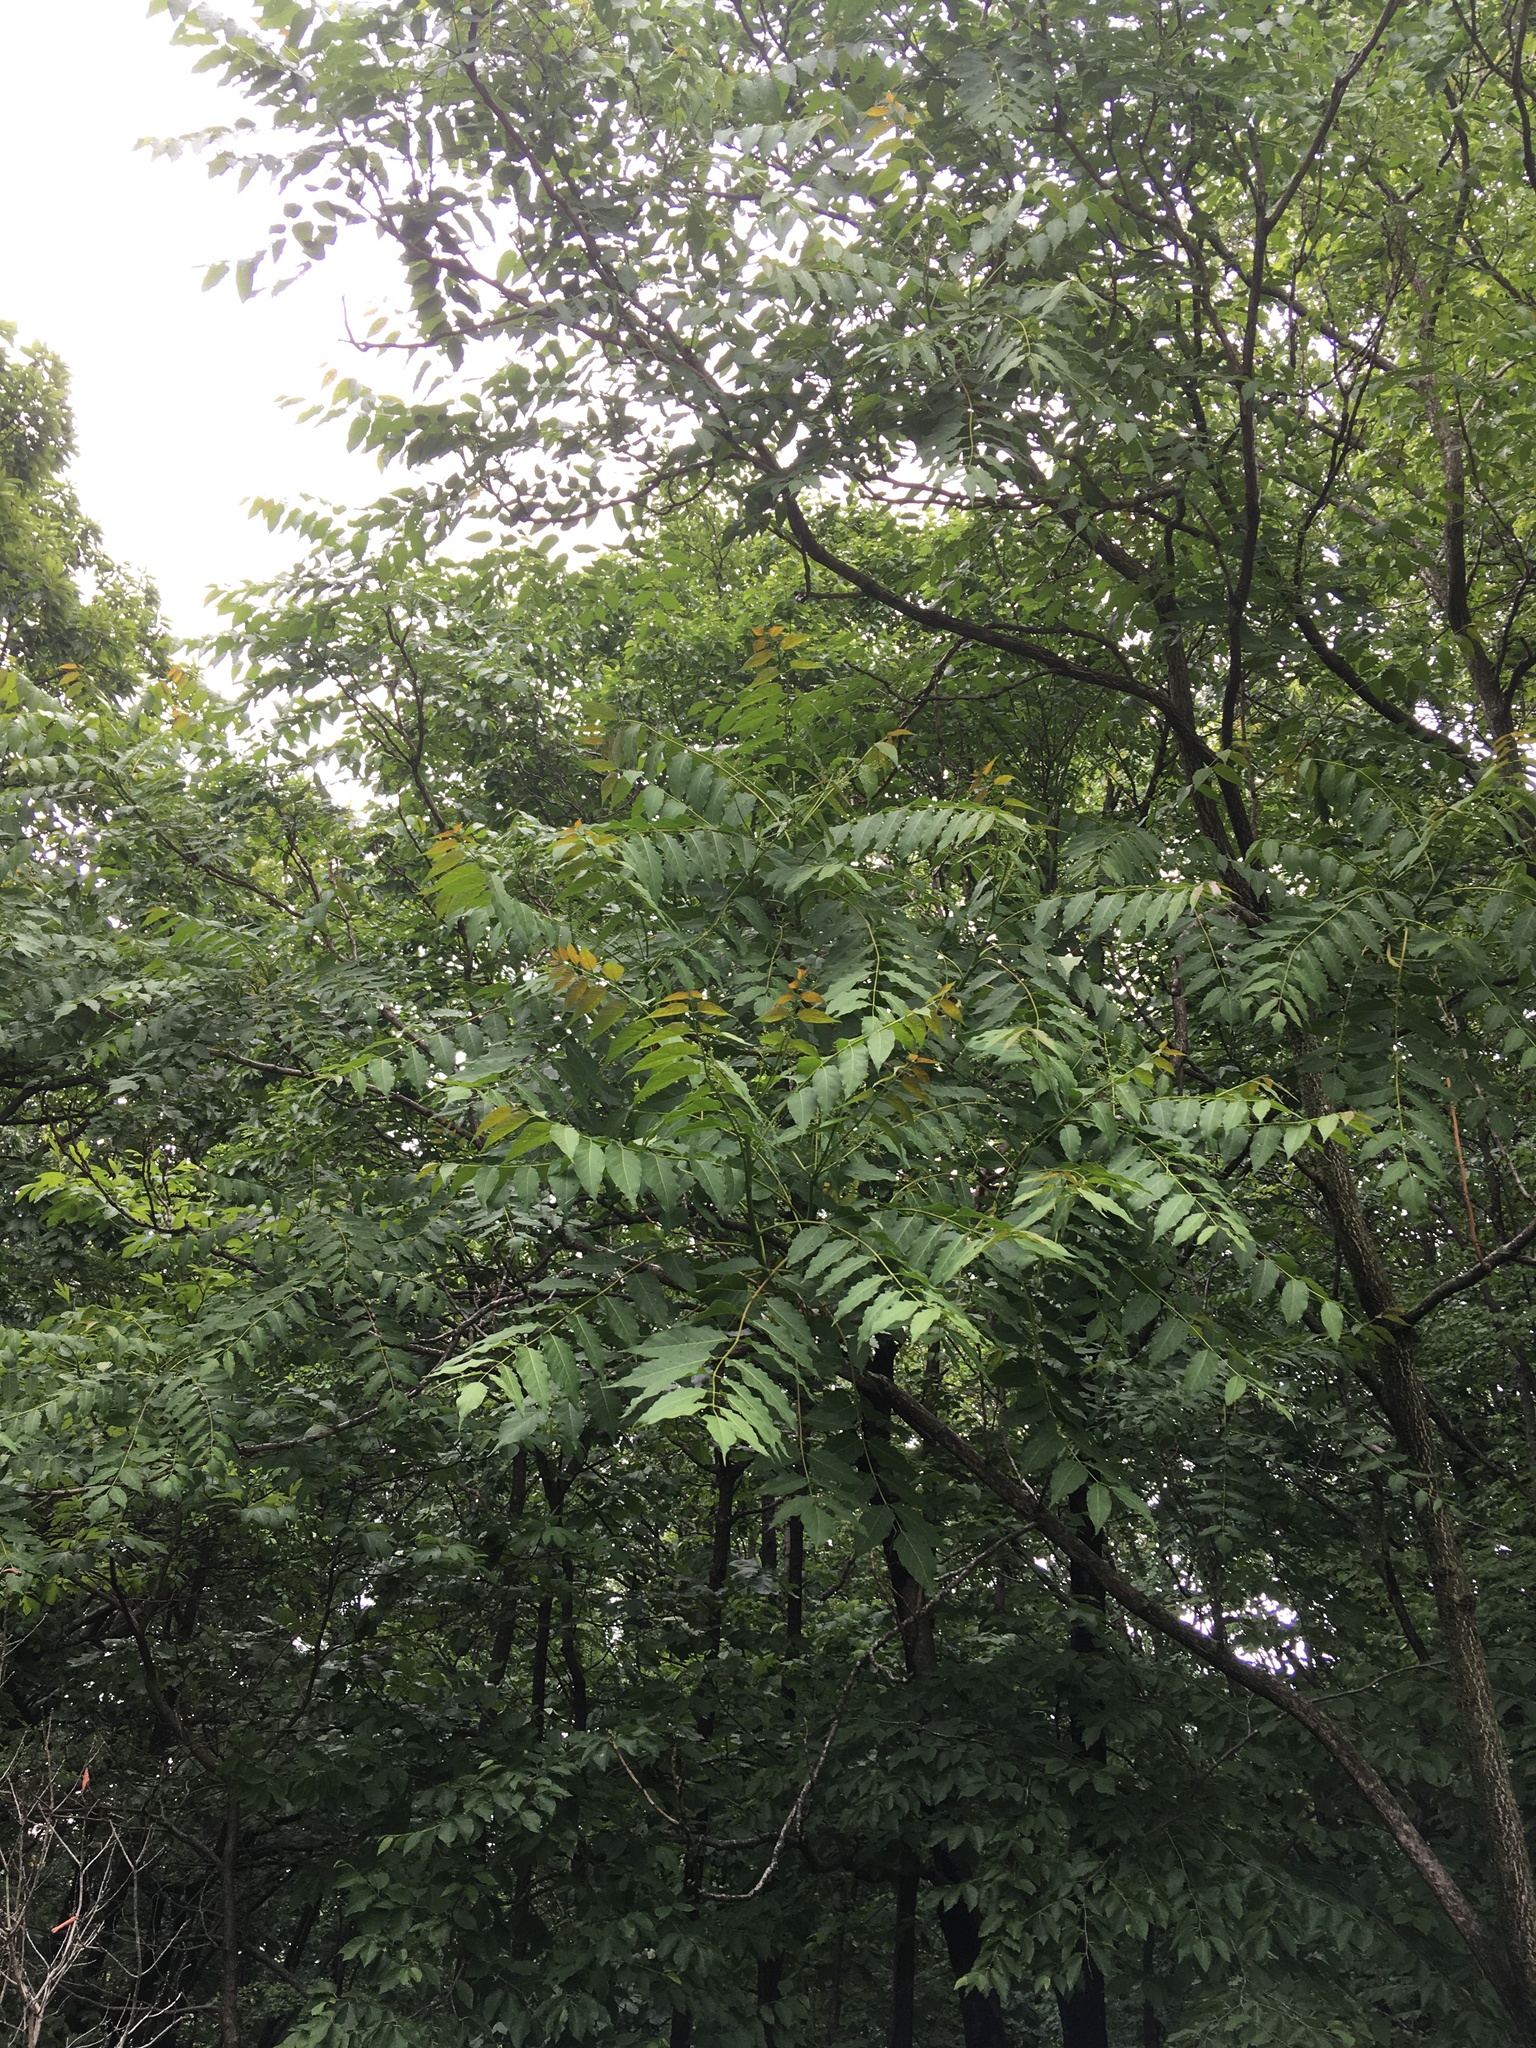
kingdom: Plantae
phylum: Tracheophyta
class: Magnoliopsida
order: Sapindales
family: Simaroubaceae
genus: Ailanthus
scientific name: Ailanthus altissima
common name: Tree-of-heaven
